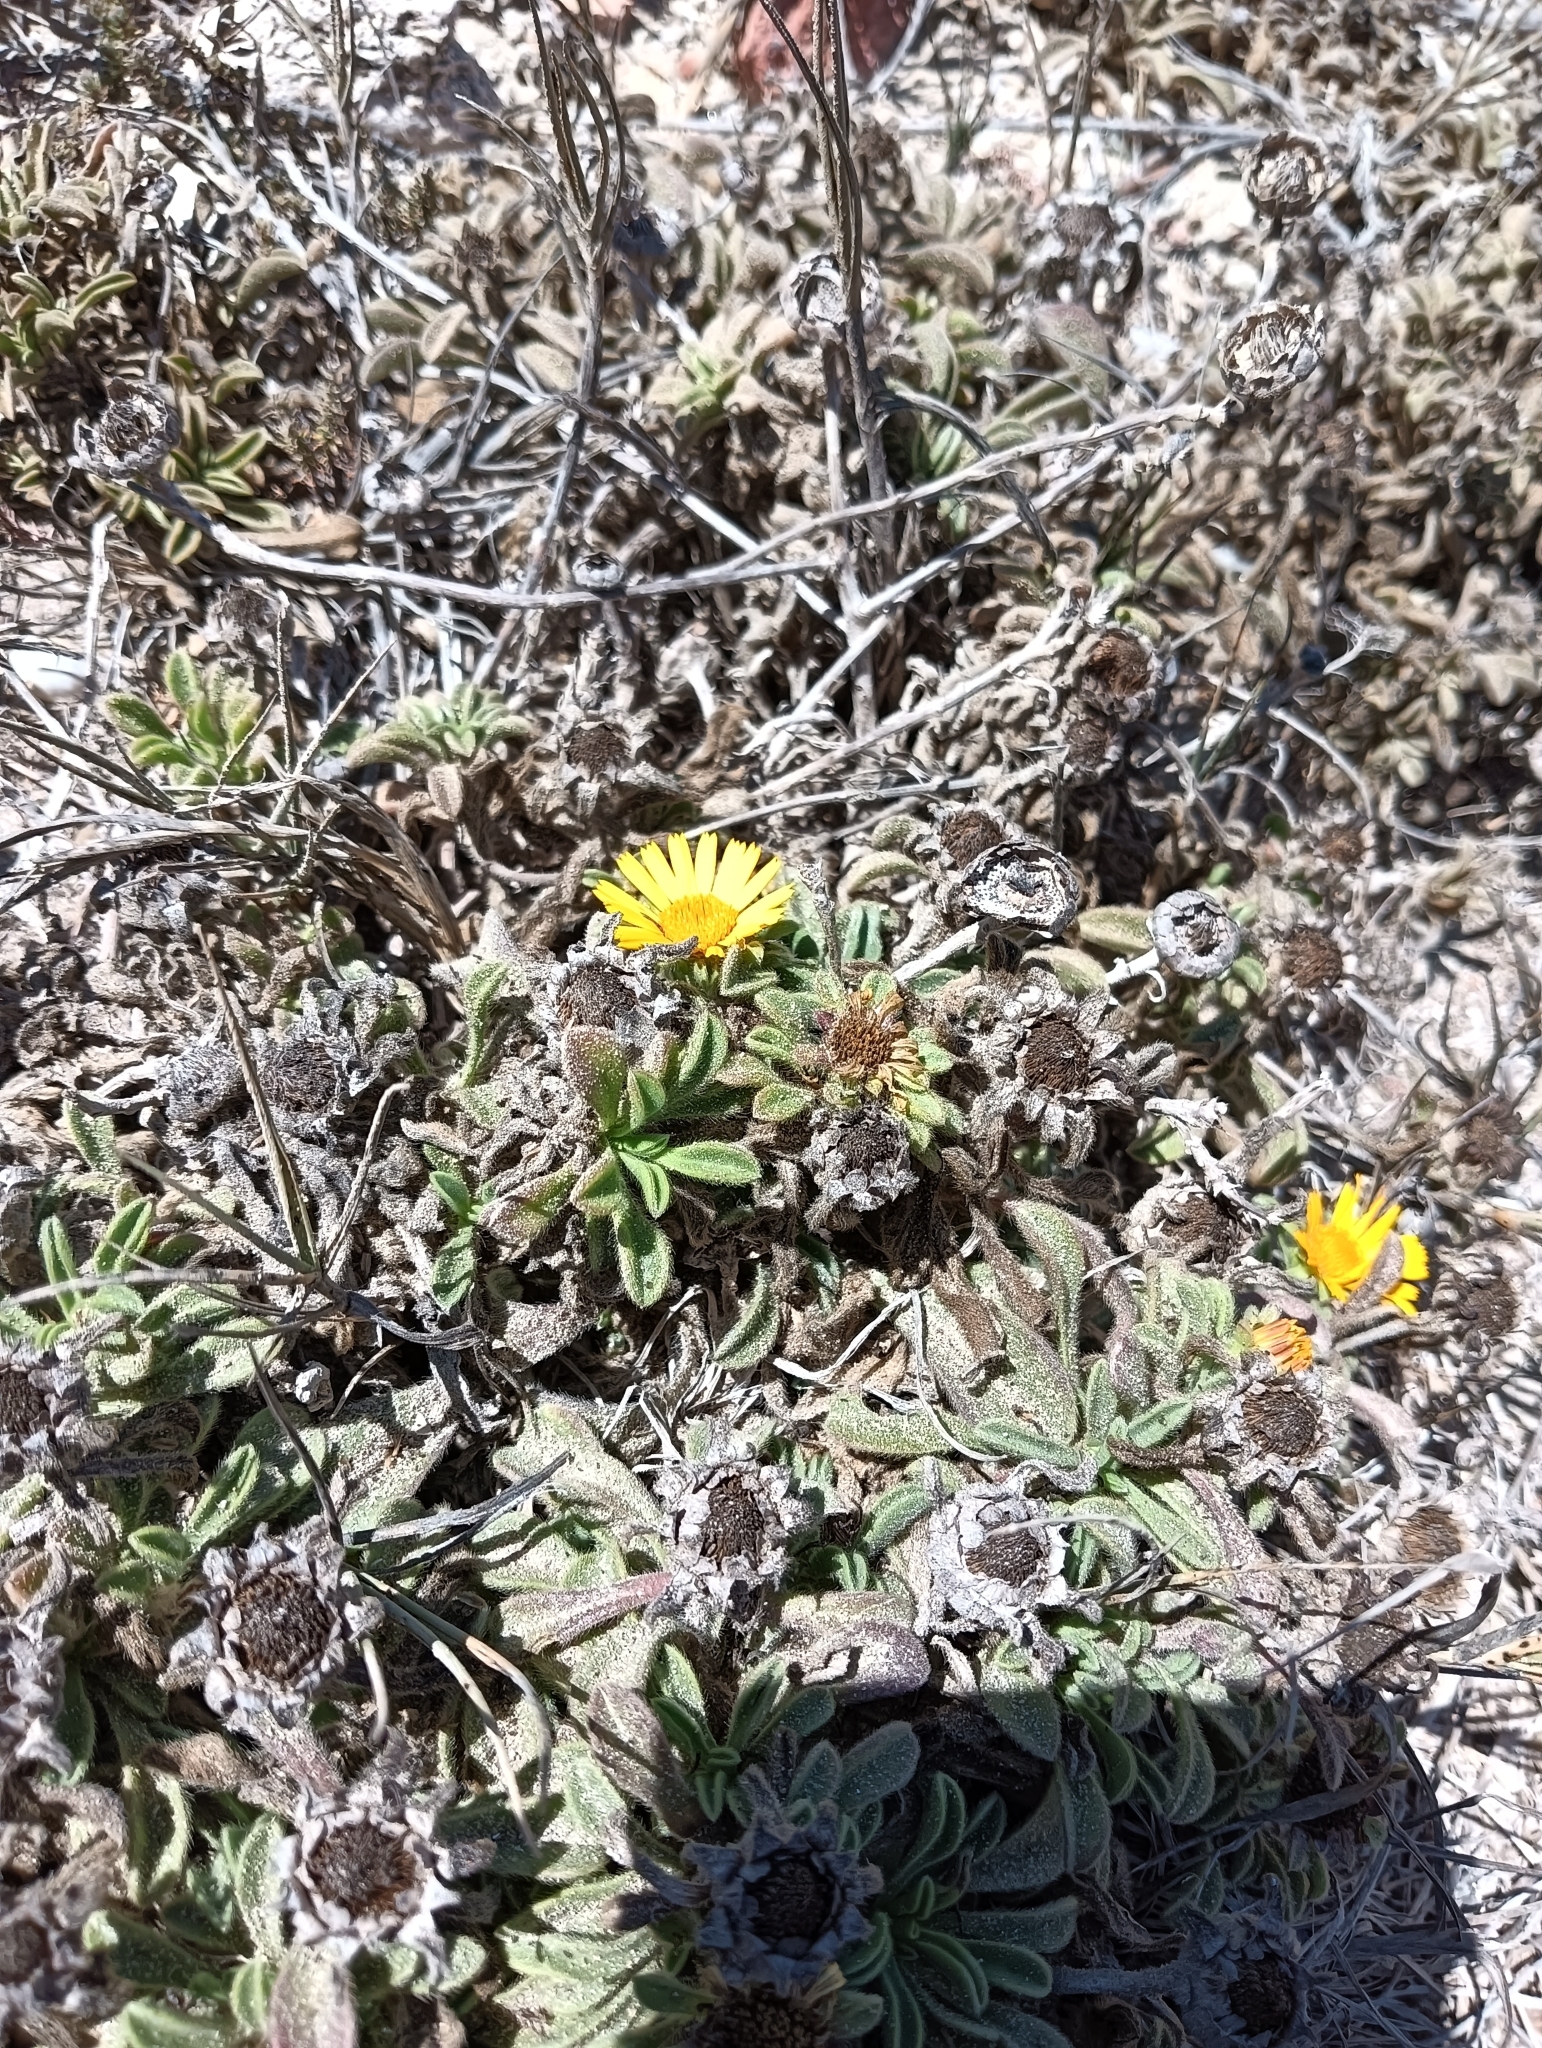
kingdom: Plantae
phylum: Tracheophyta
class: Magnoliopsida
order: Asterales
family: Asteraceae
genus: Pallenis
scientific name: Pallenis maritima
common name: Golden coin daisy
